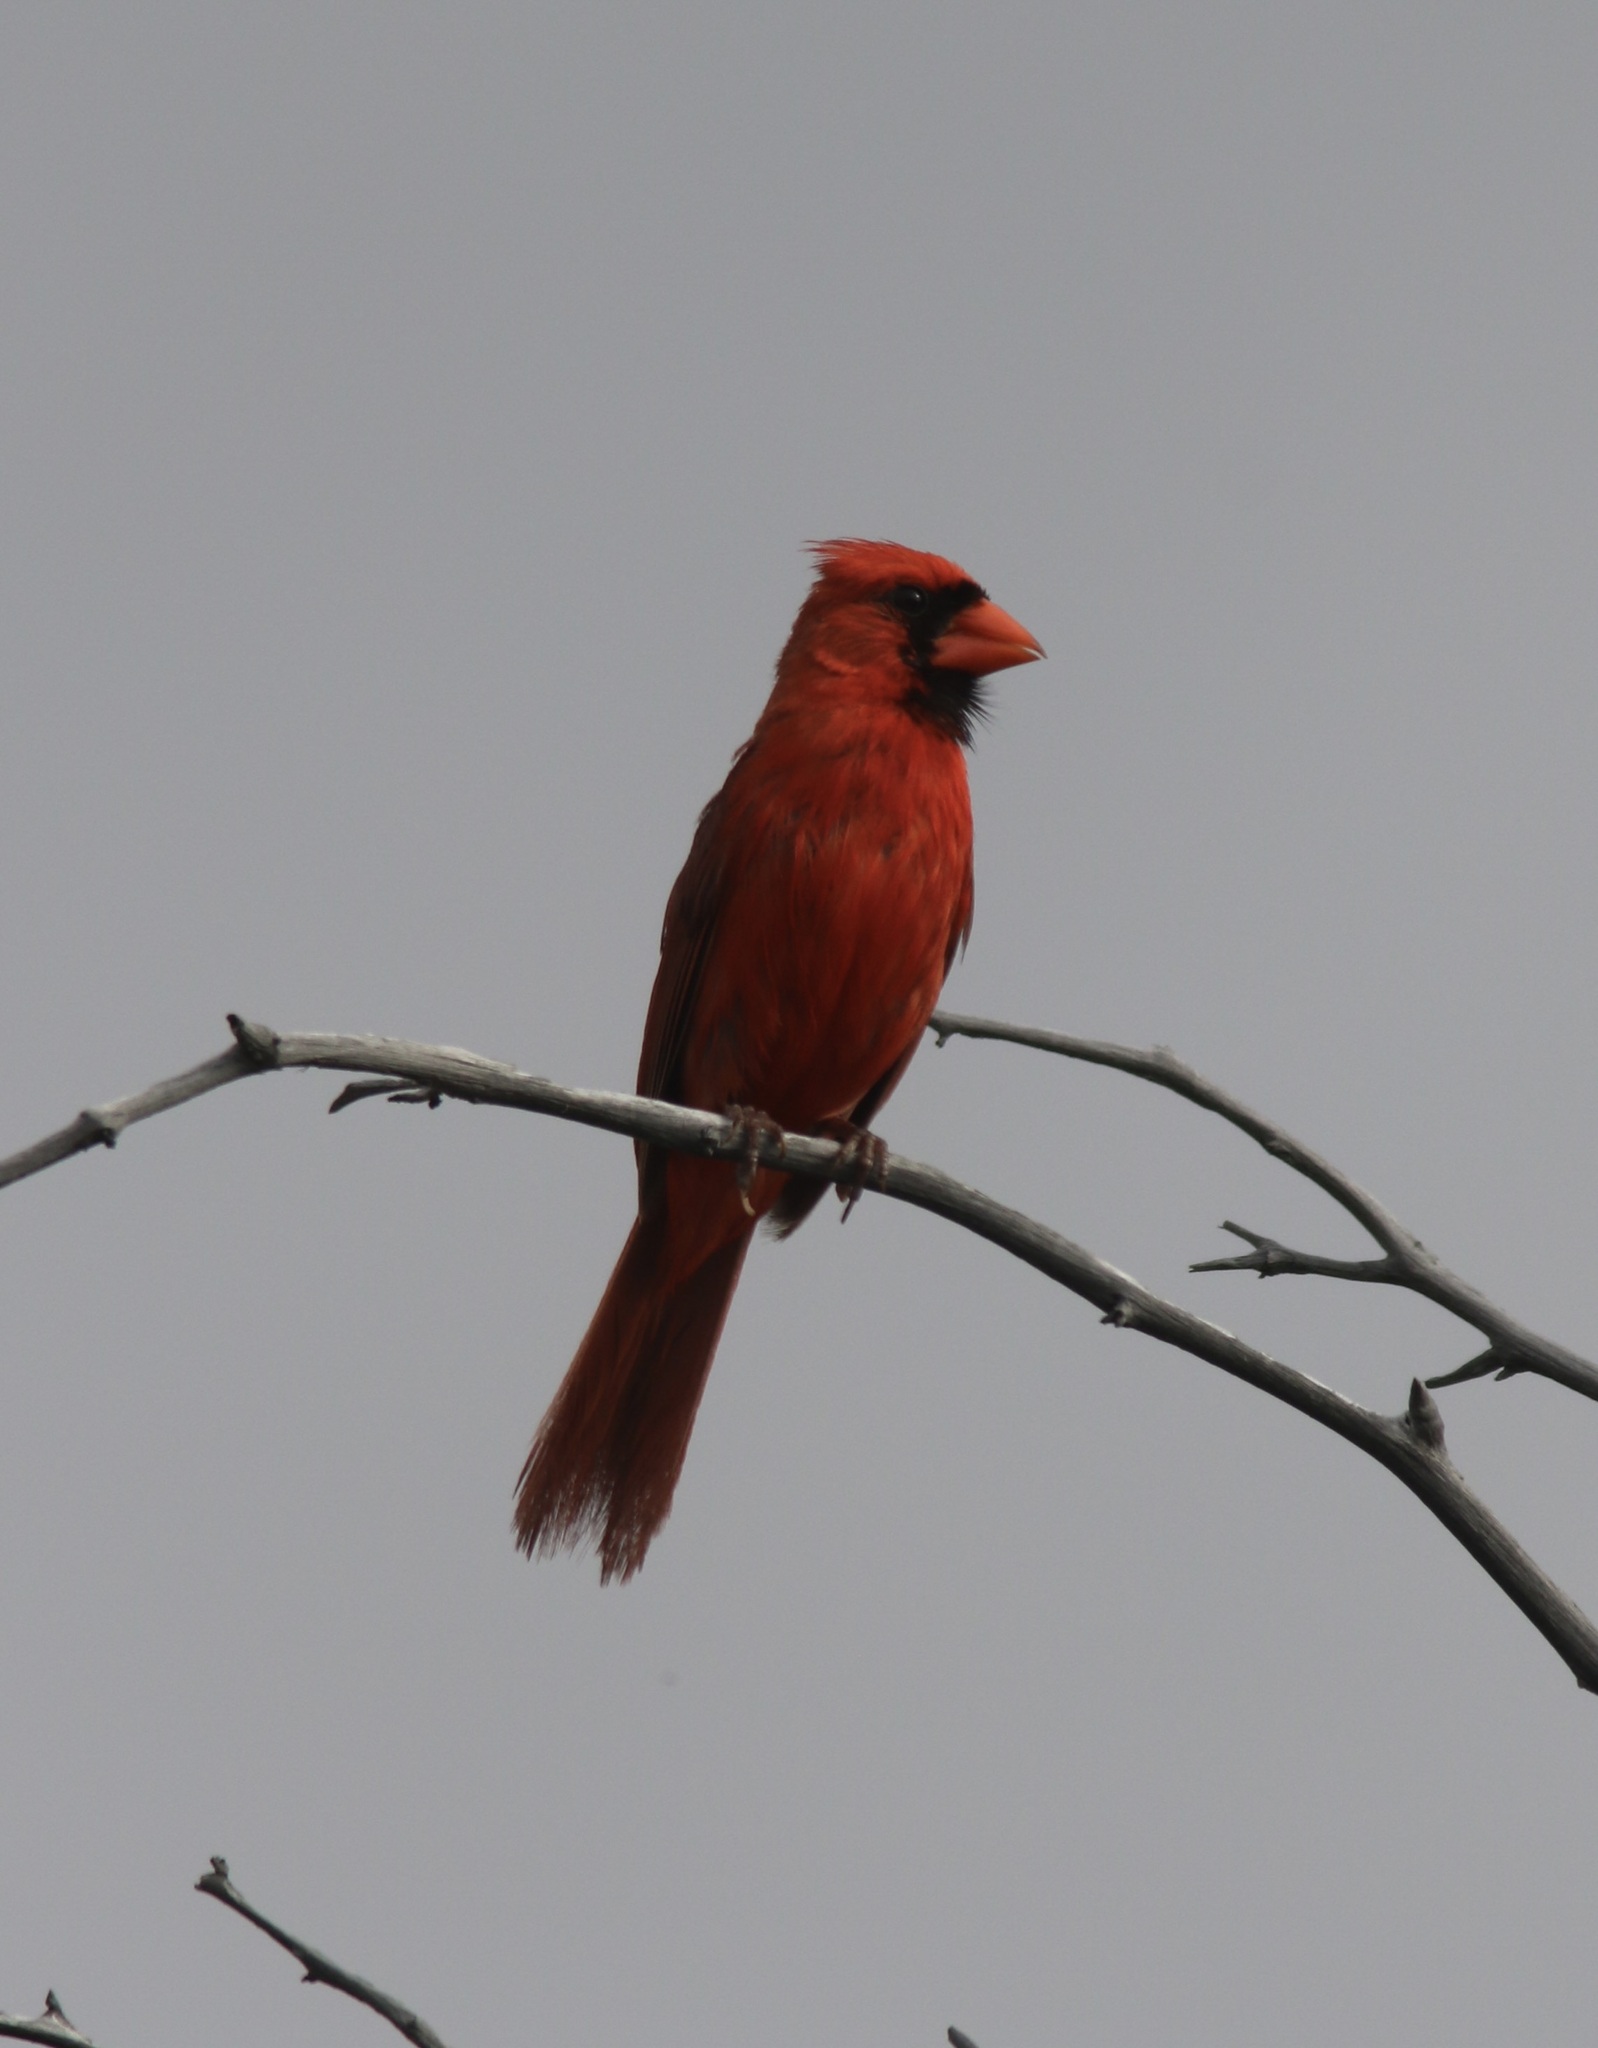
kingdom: Animalia
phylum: Chordata
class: Aves
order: Passeriformes
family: Cardinalidae
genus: Cardinalis
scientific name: Cardinalis cardinalis
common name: Northern cardinal
